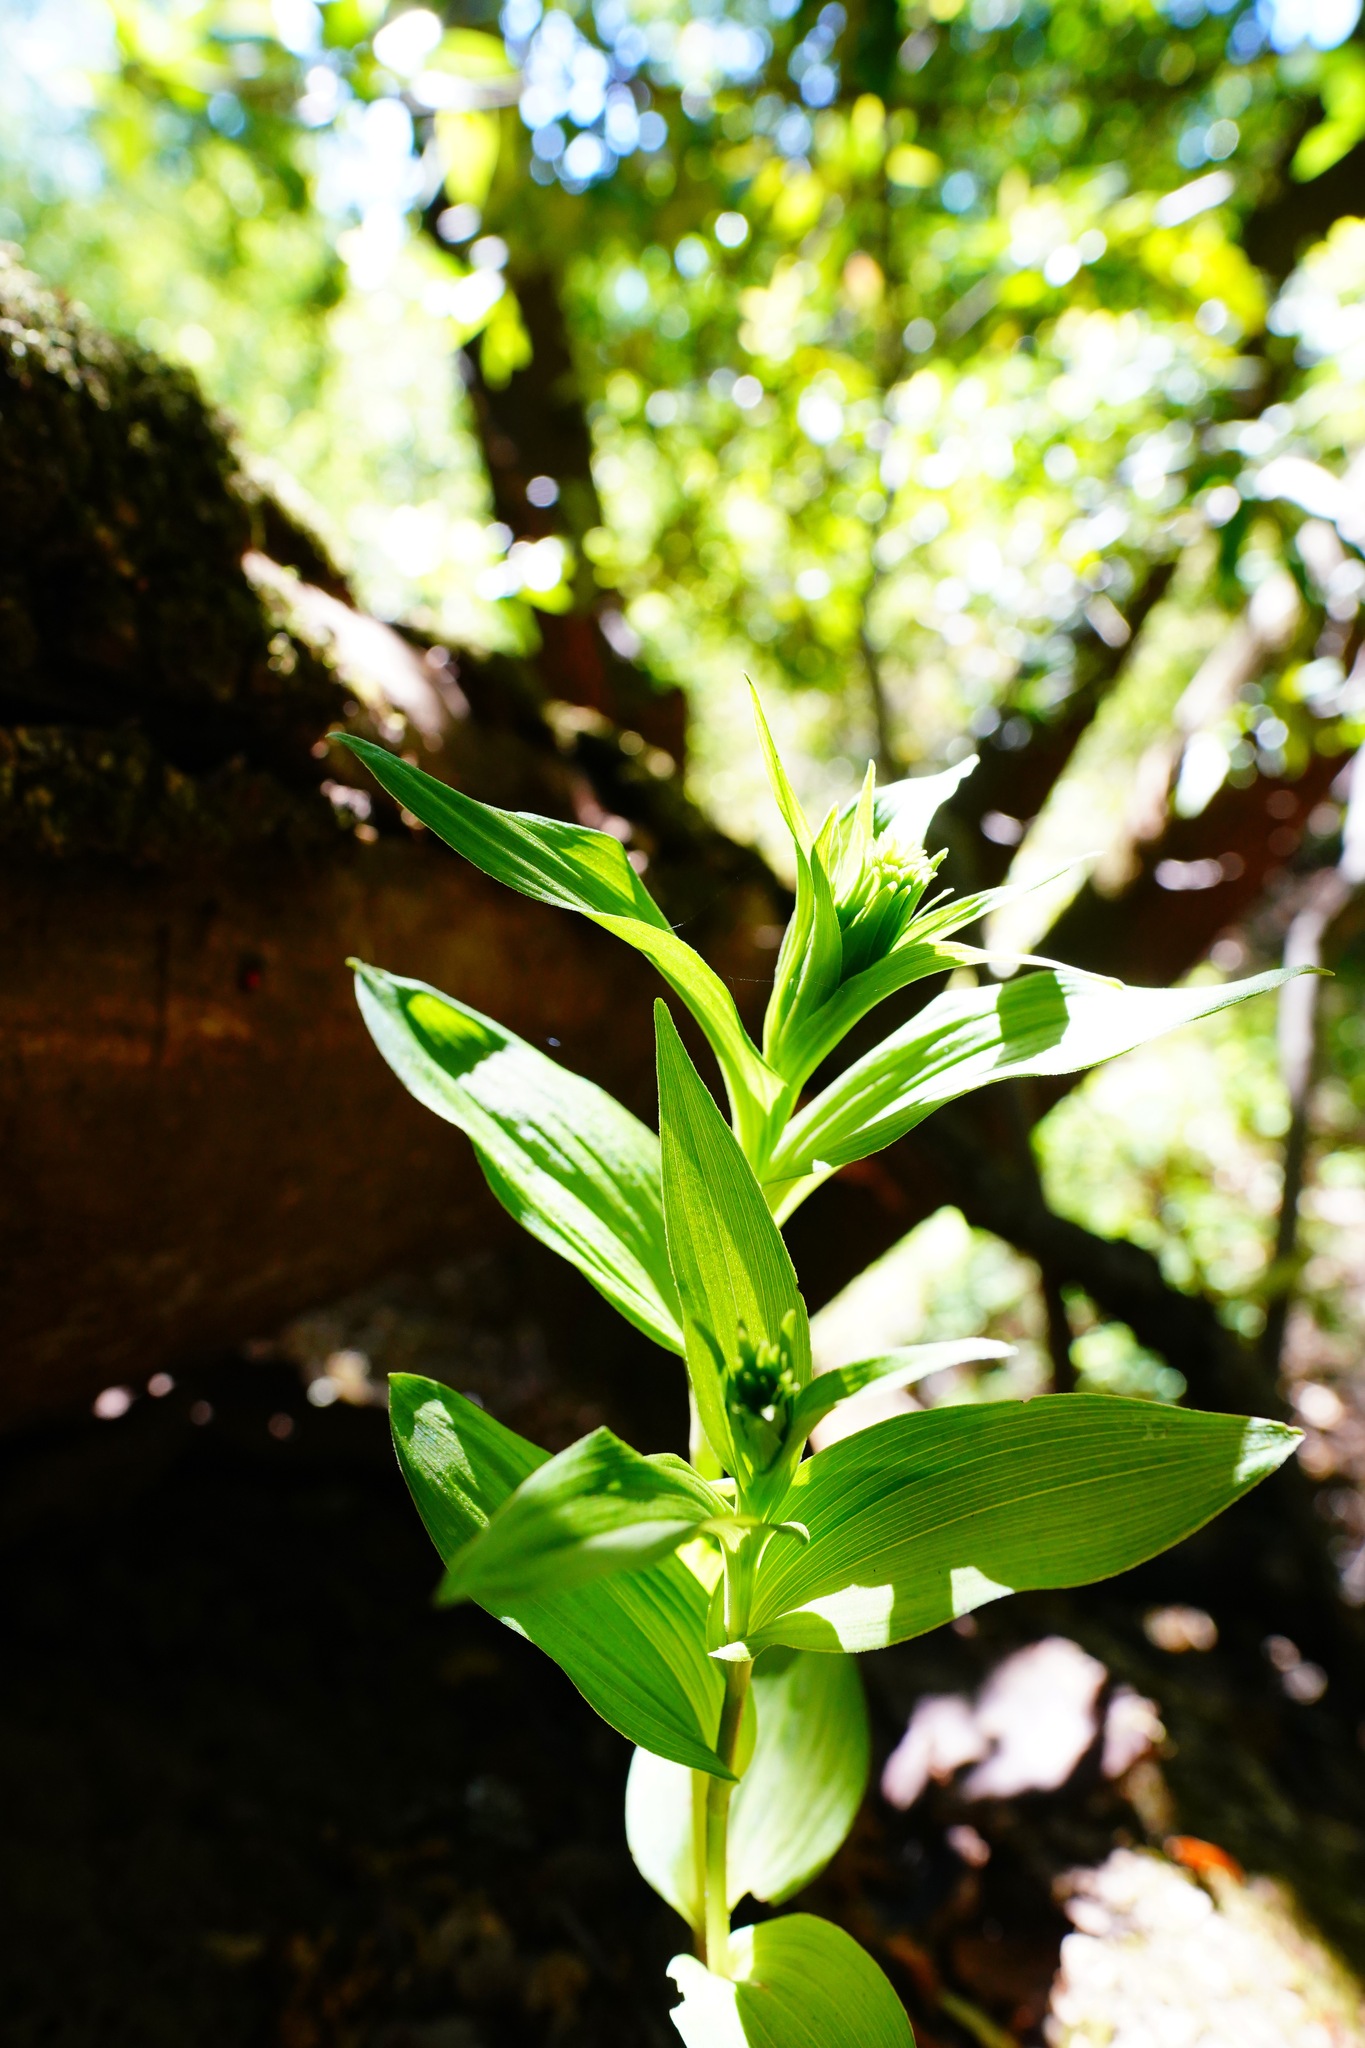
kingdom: Plantae
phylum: Tracheophyta
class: Liliopsida
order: Asparagales
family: Orchidaceae
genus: Epipactis
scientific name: Epipactis helleborine
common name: Broad-leaved helleborine
